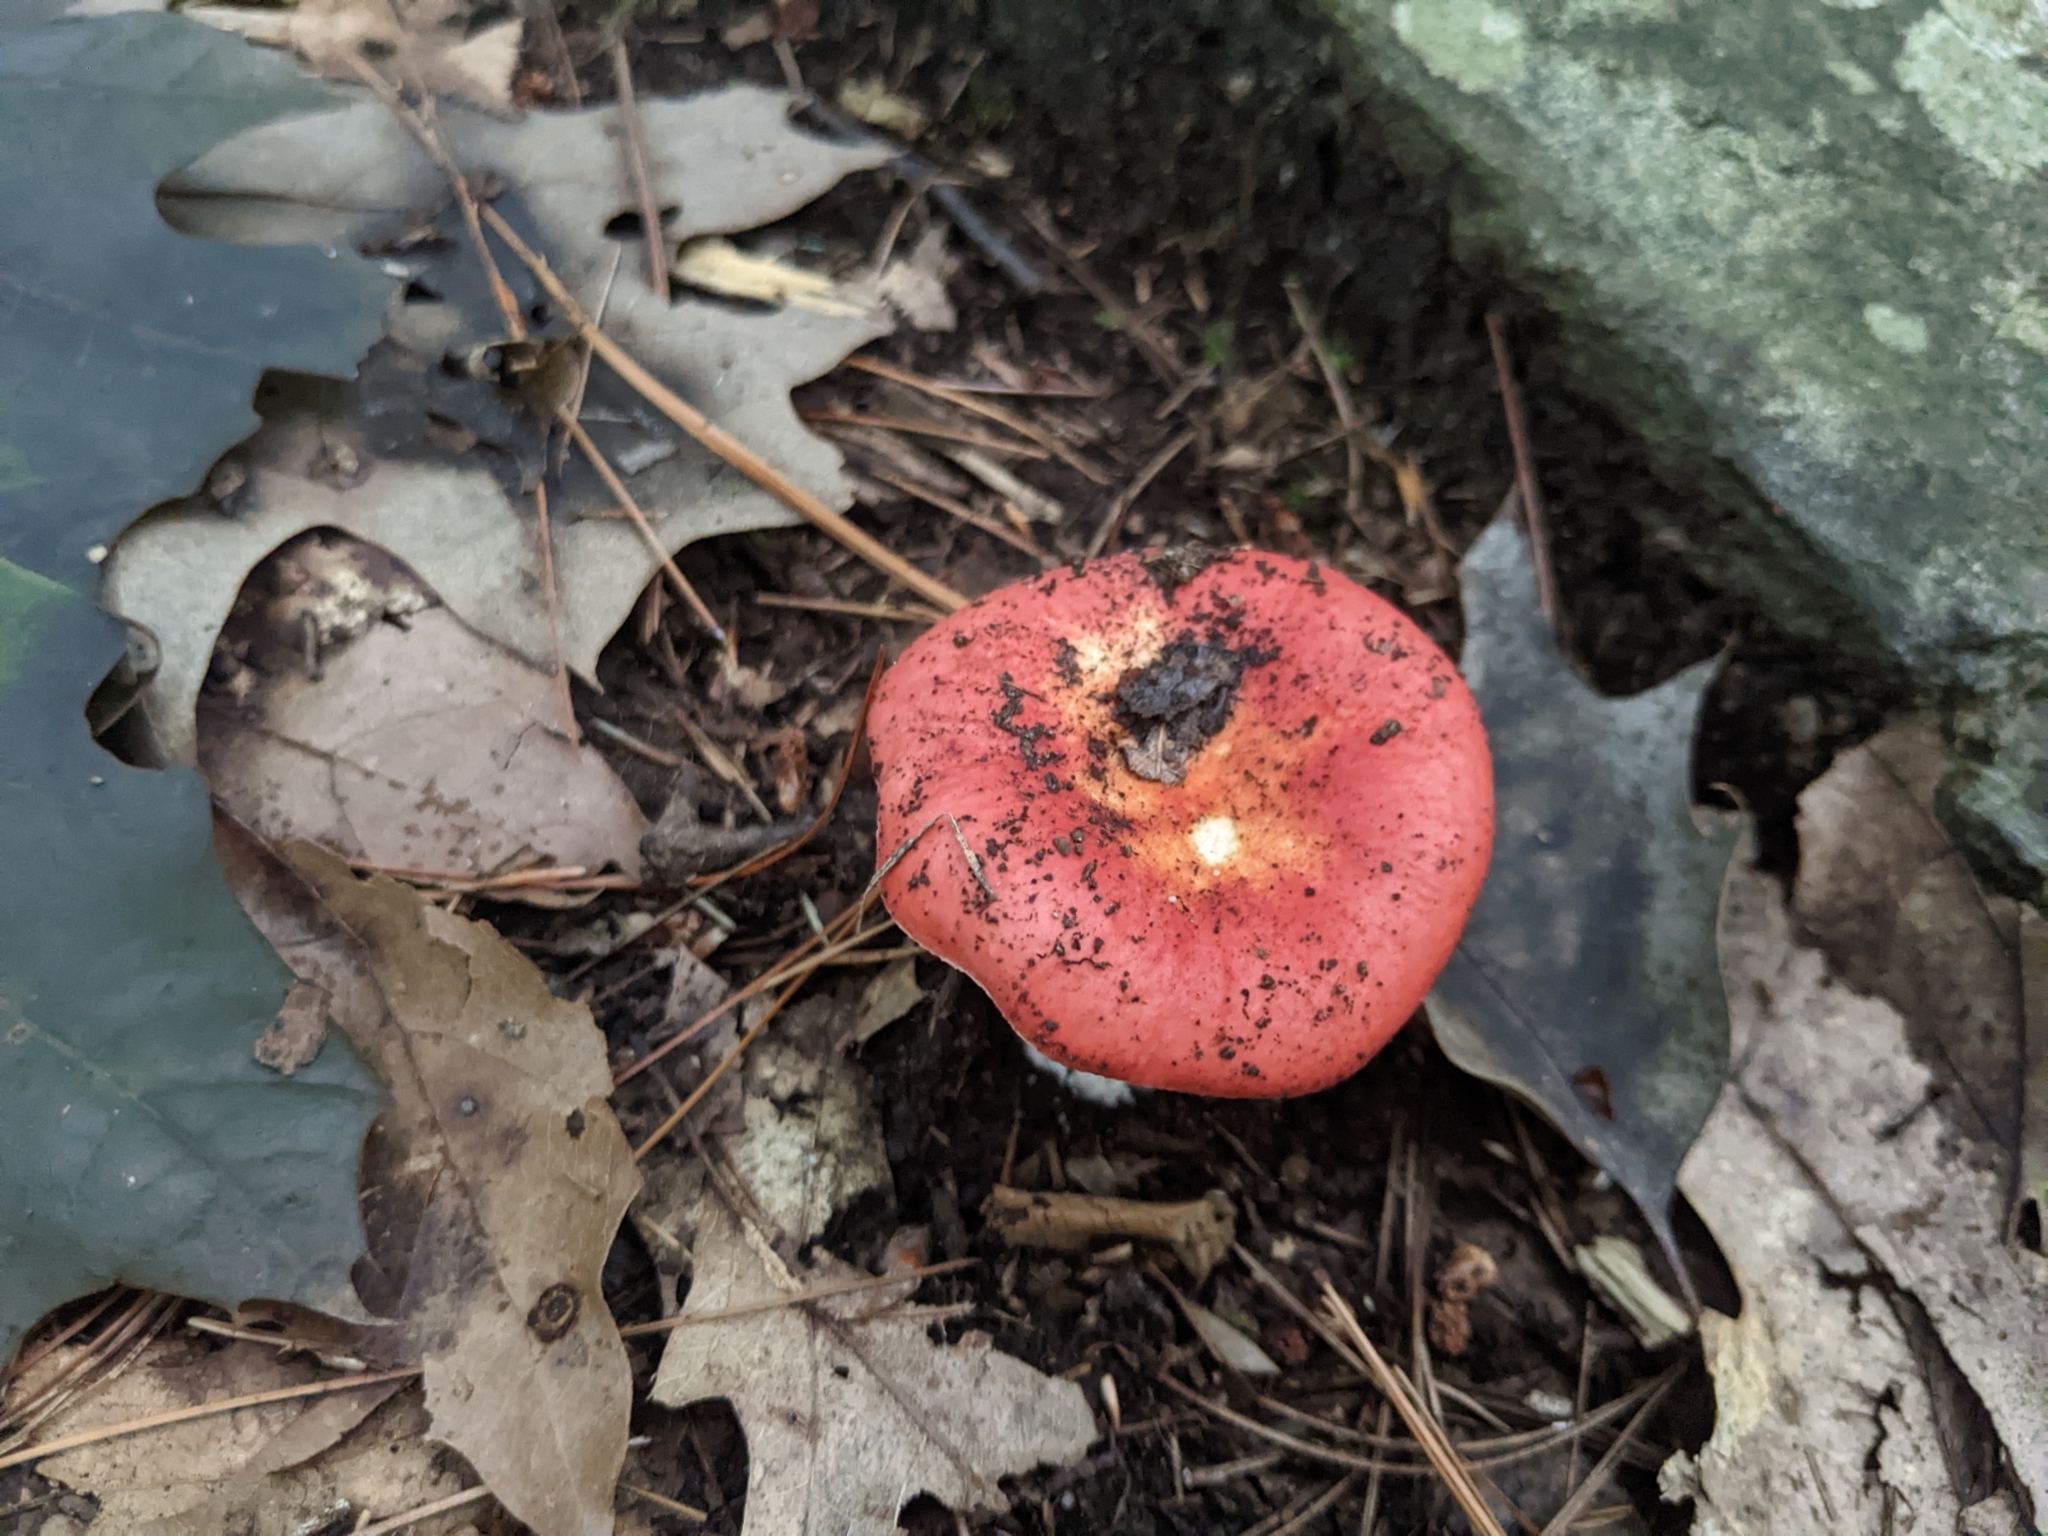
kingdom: Fungi
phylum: Basidiomycota
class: Agaricomycetes
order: Russulales
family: Russulaceae
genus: Russula
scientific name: Russula
